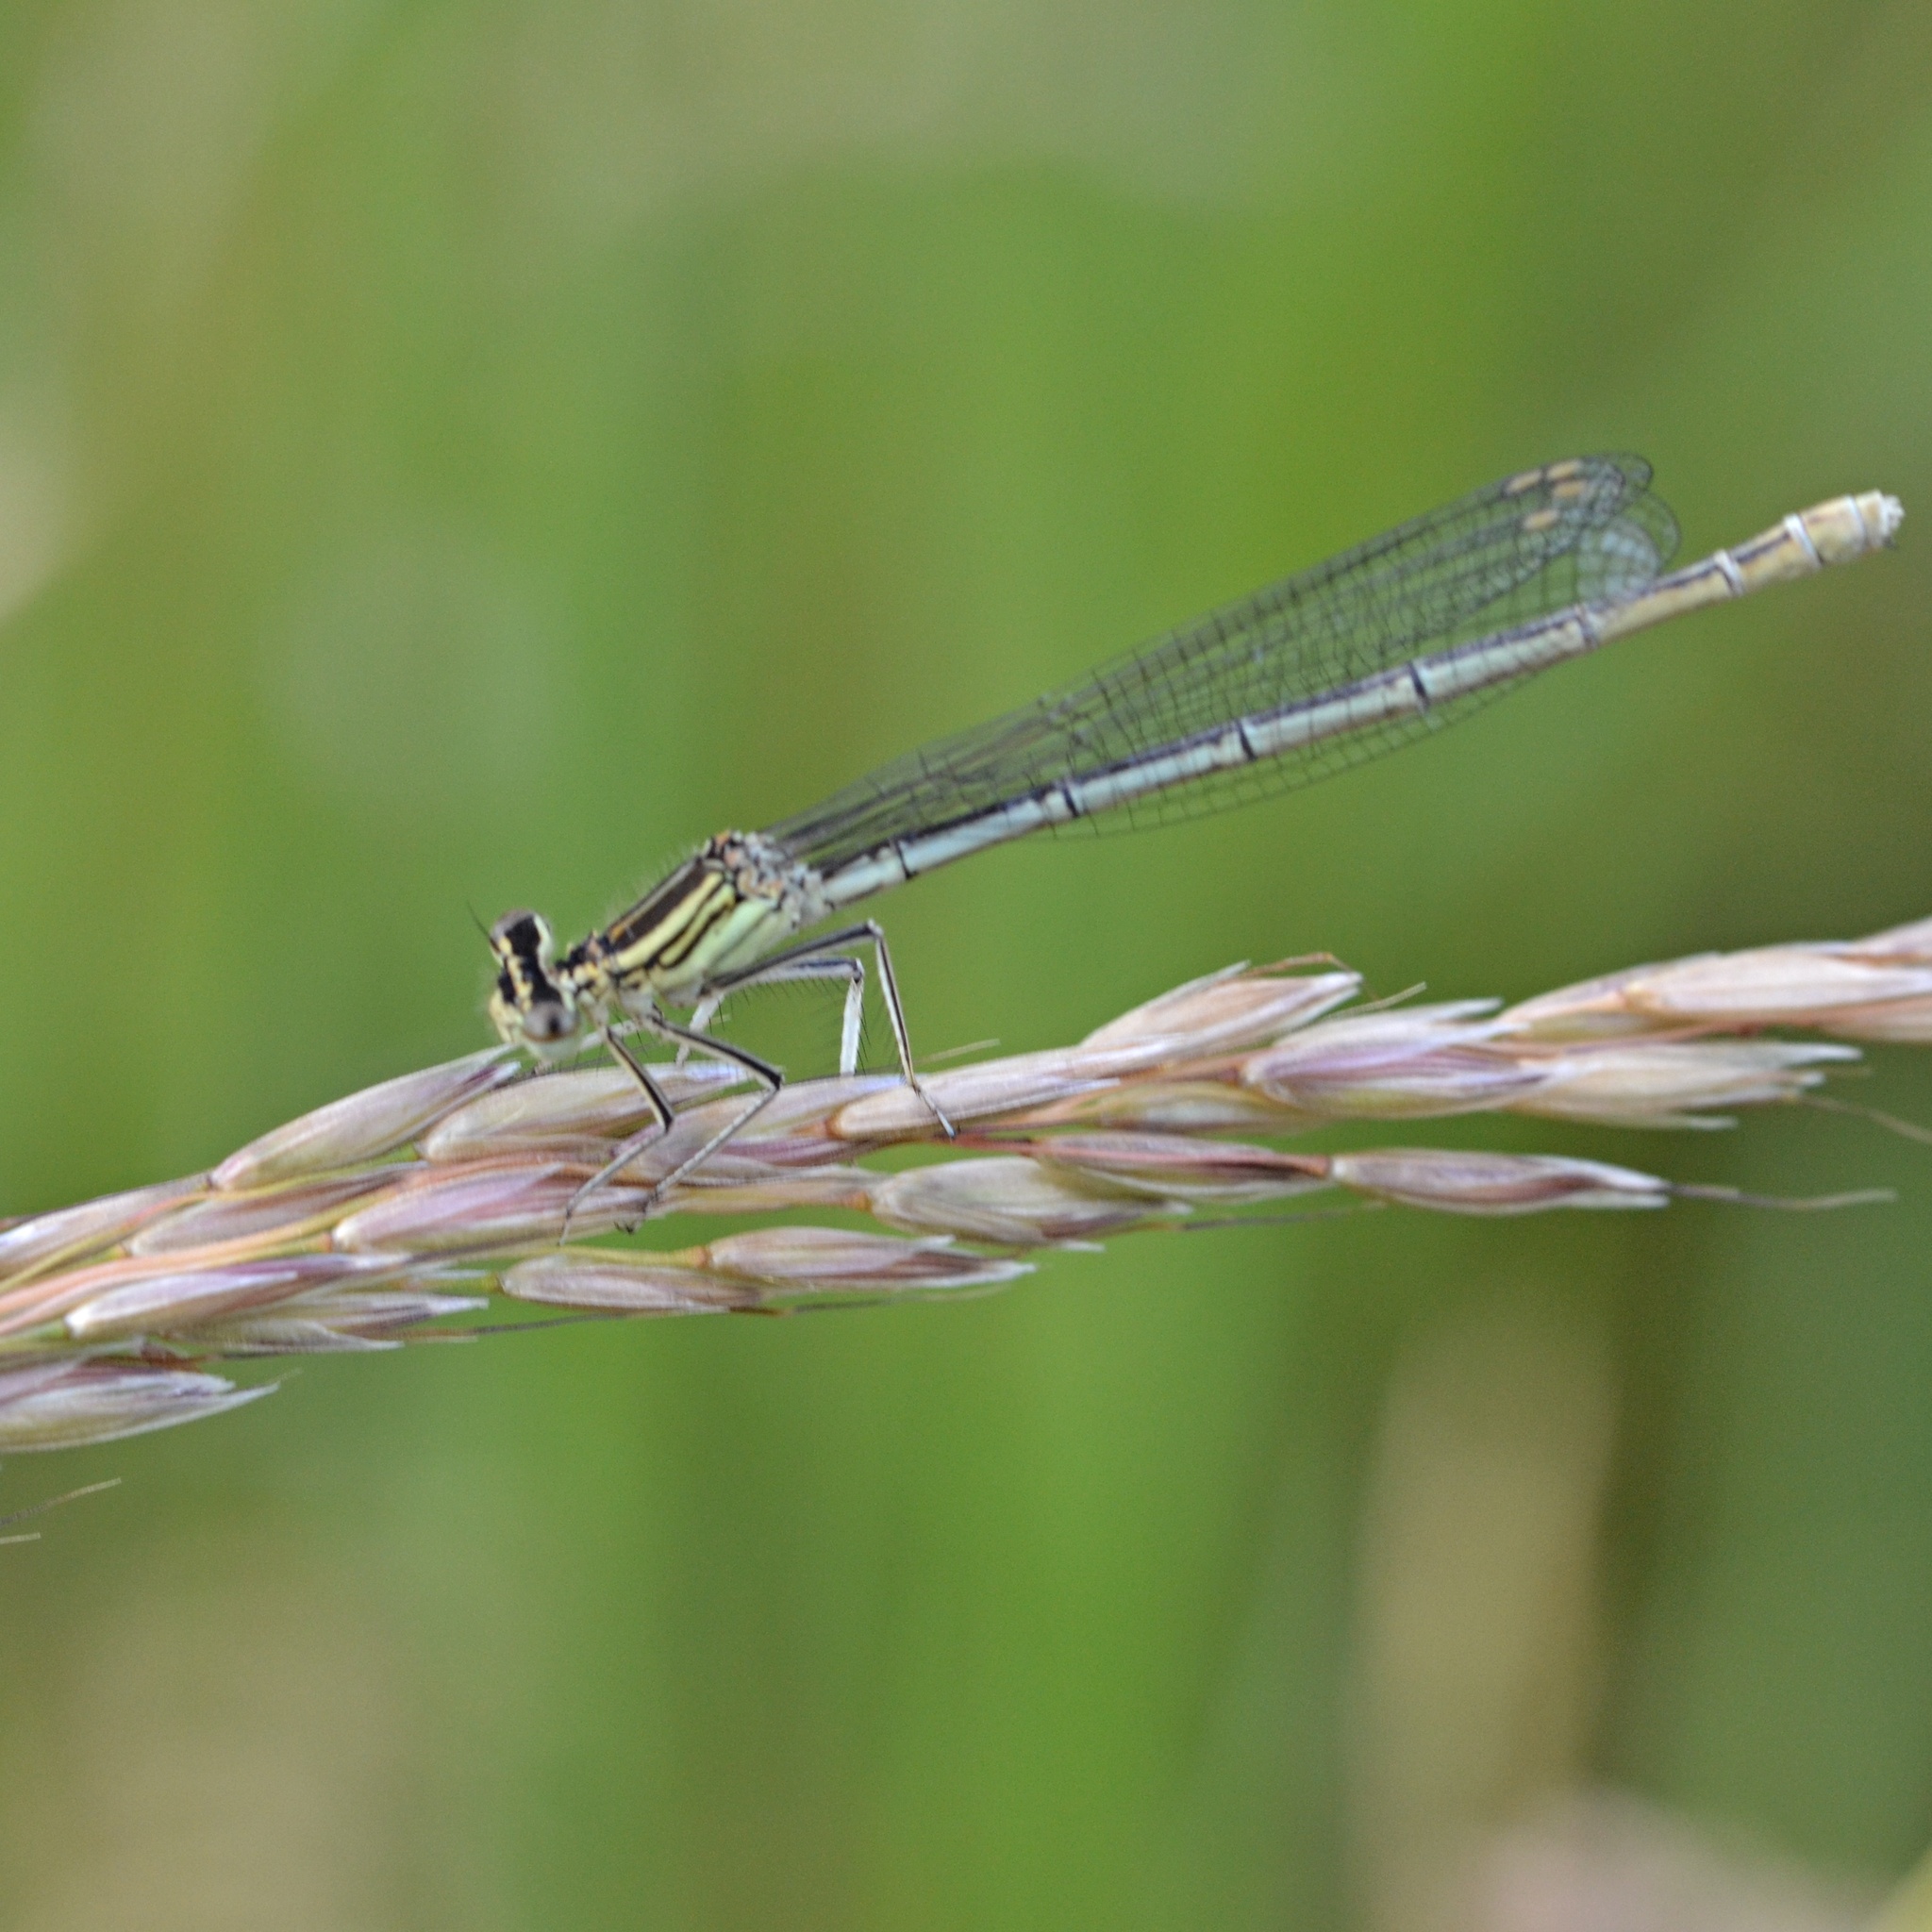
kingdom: Animalia
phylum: Arthropoda
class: Insecta
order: Odonata
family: Platycnemididae
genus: Platycnemis
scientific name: Platycnemis pennipes
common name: White-legged damselfly
